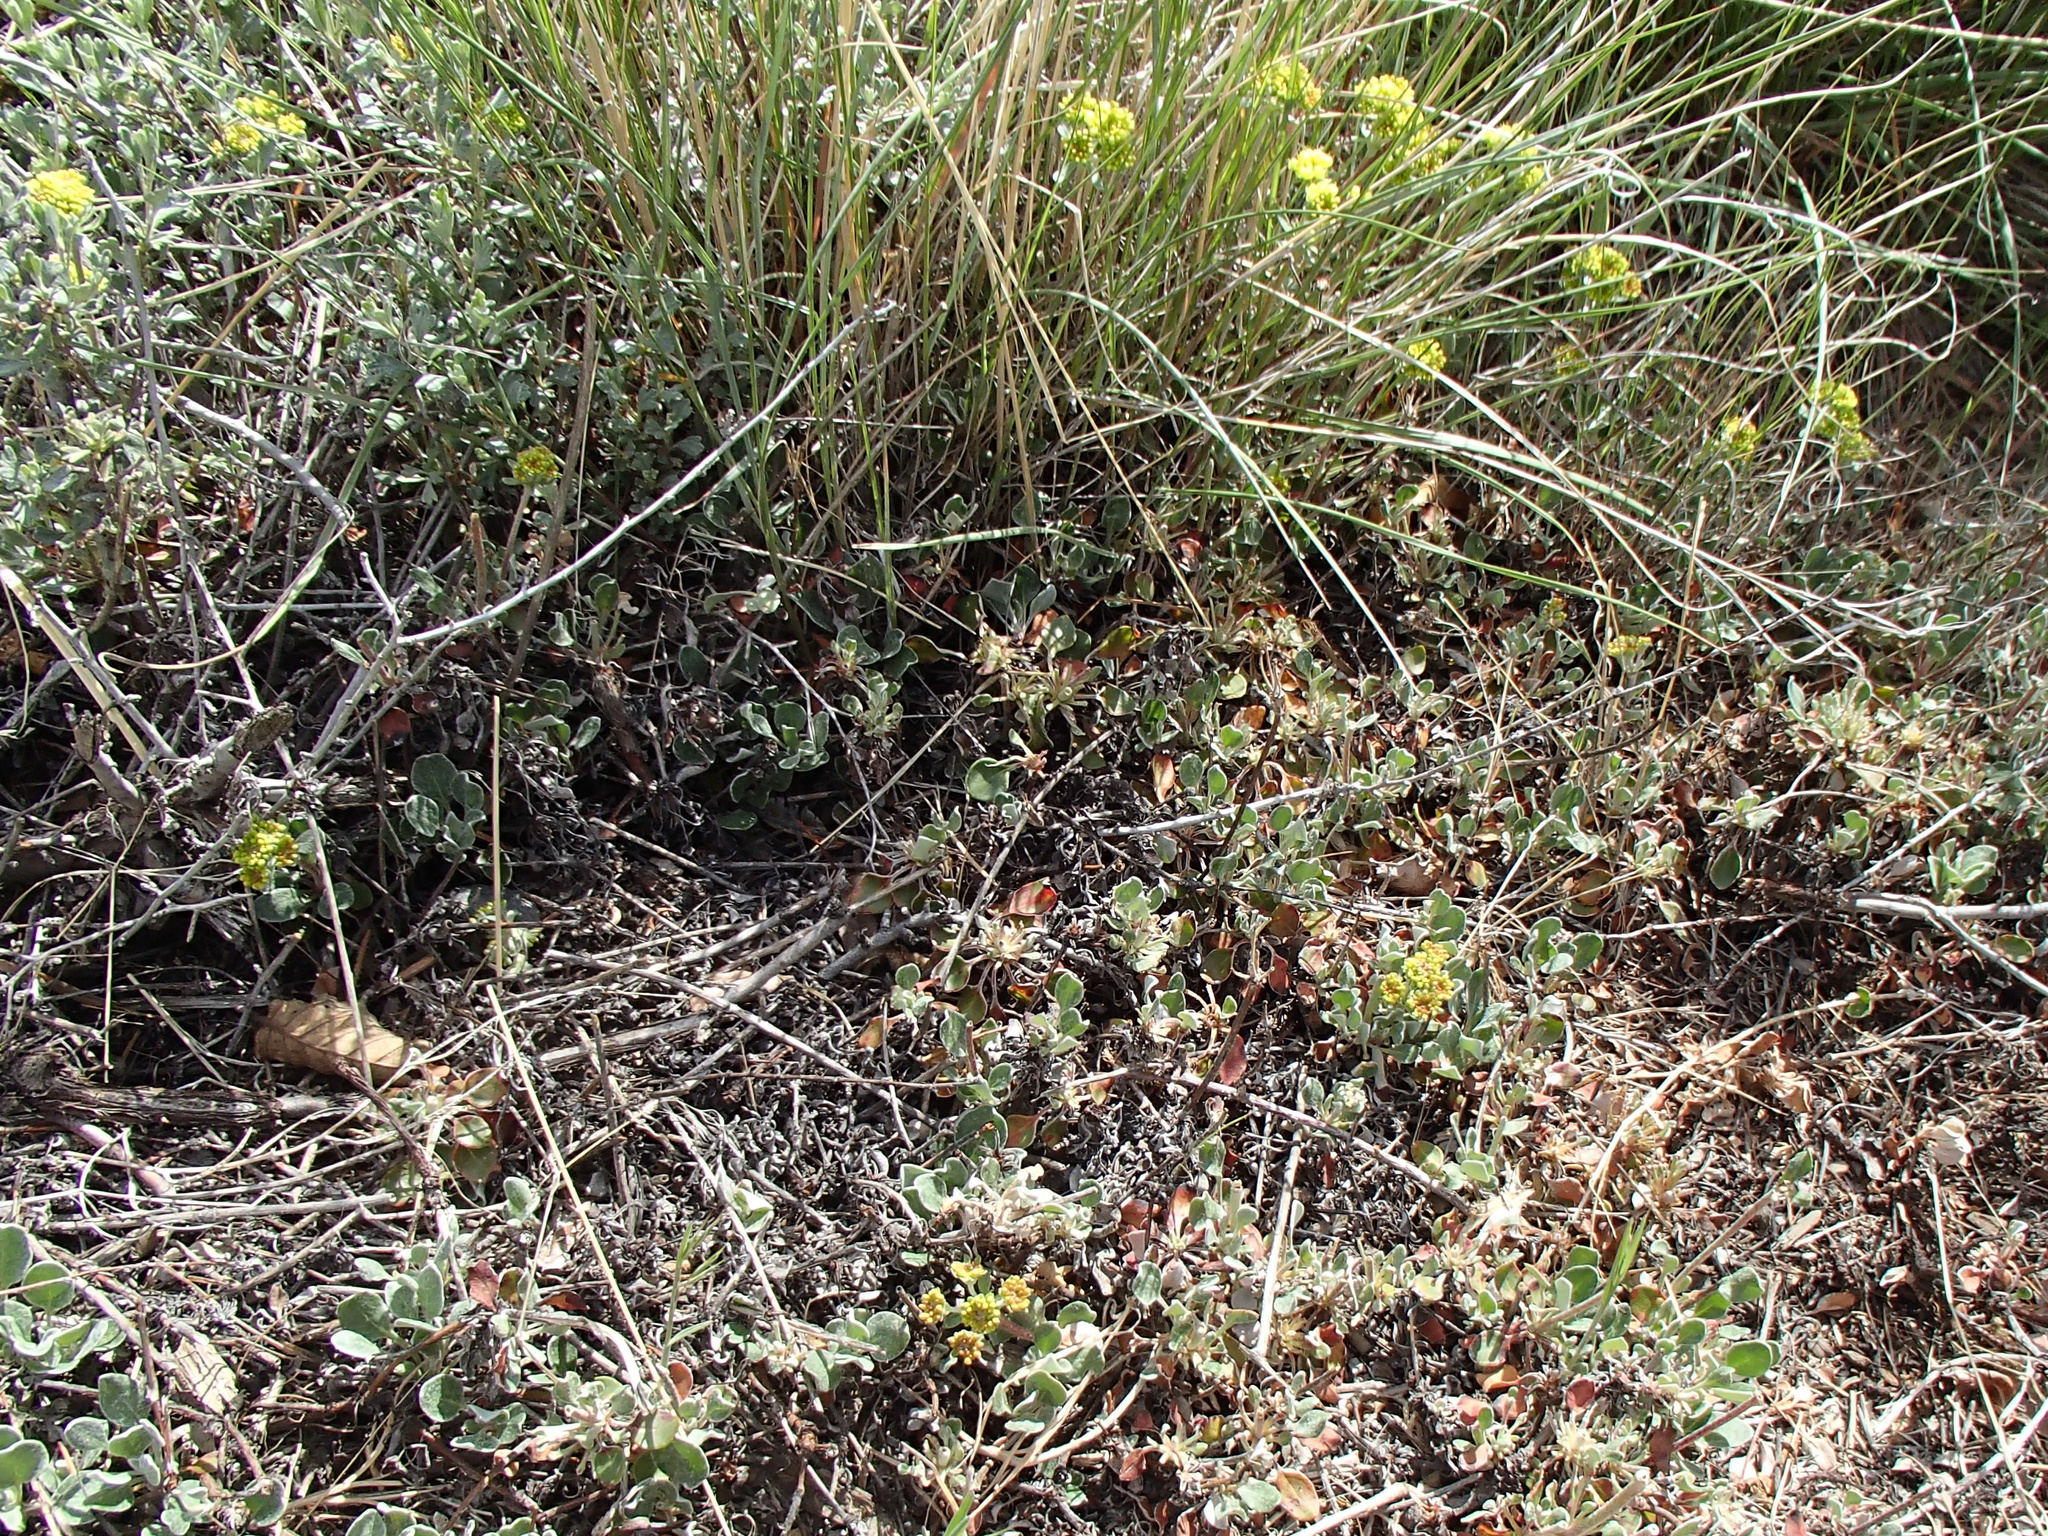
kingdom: Plantae
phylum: Tracheophyta
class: Magnoliopsida
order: Caryophyllales
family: Polygonaceae
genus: Eriogonum
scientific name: Eriogonum umbellatum
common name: Sulfur-buckwheat
